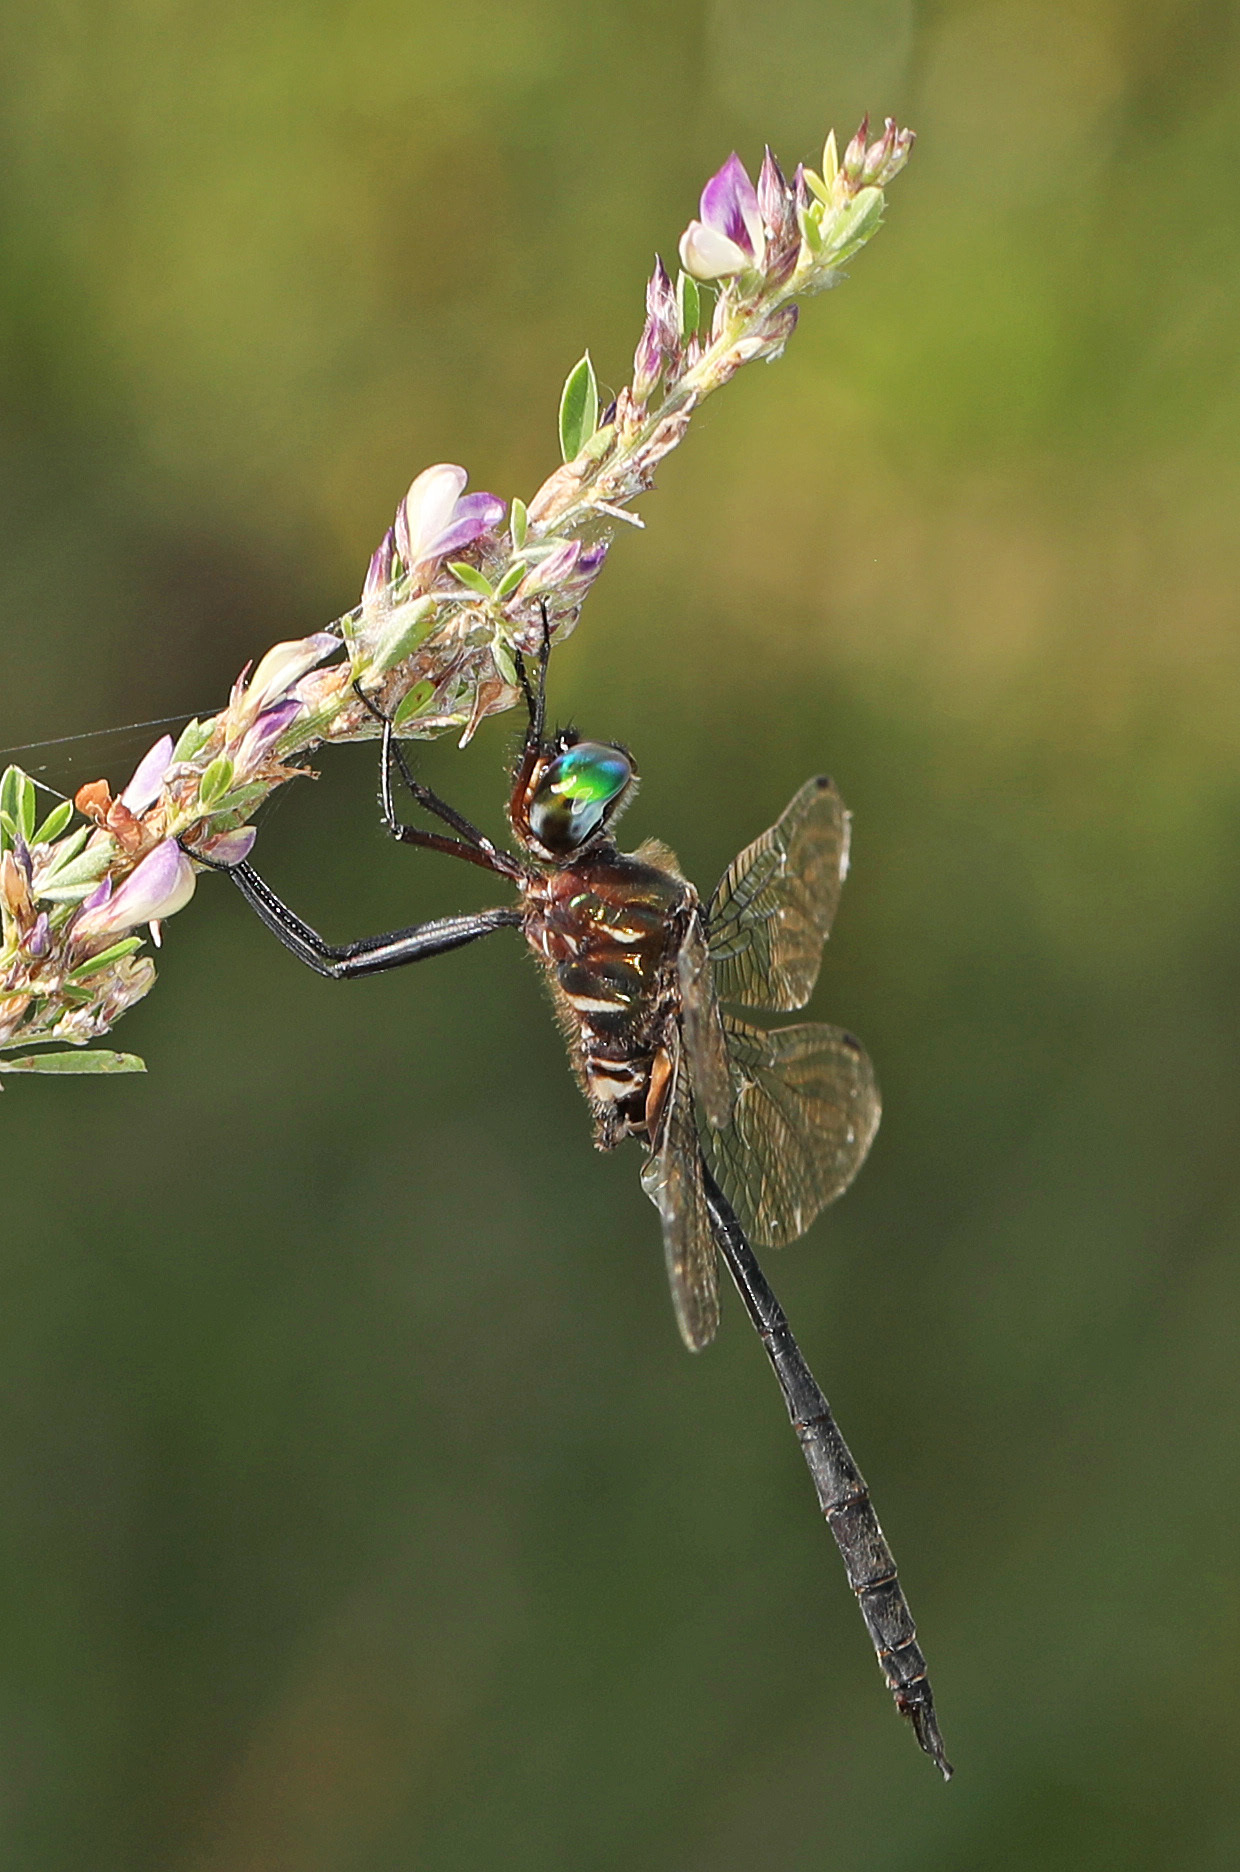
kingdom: Animalia
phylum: Arthropoda
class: Insecta
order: Odonata
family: Corduliidae
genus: Somatochlora
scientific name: Somatochlora filosa
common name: Fine-lined emerald
